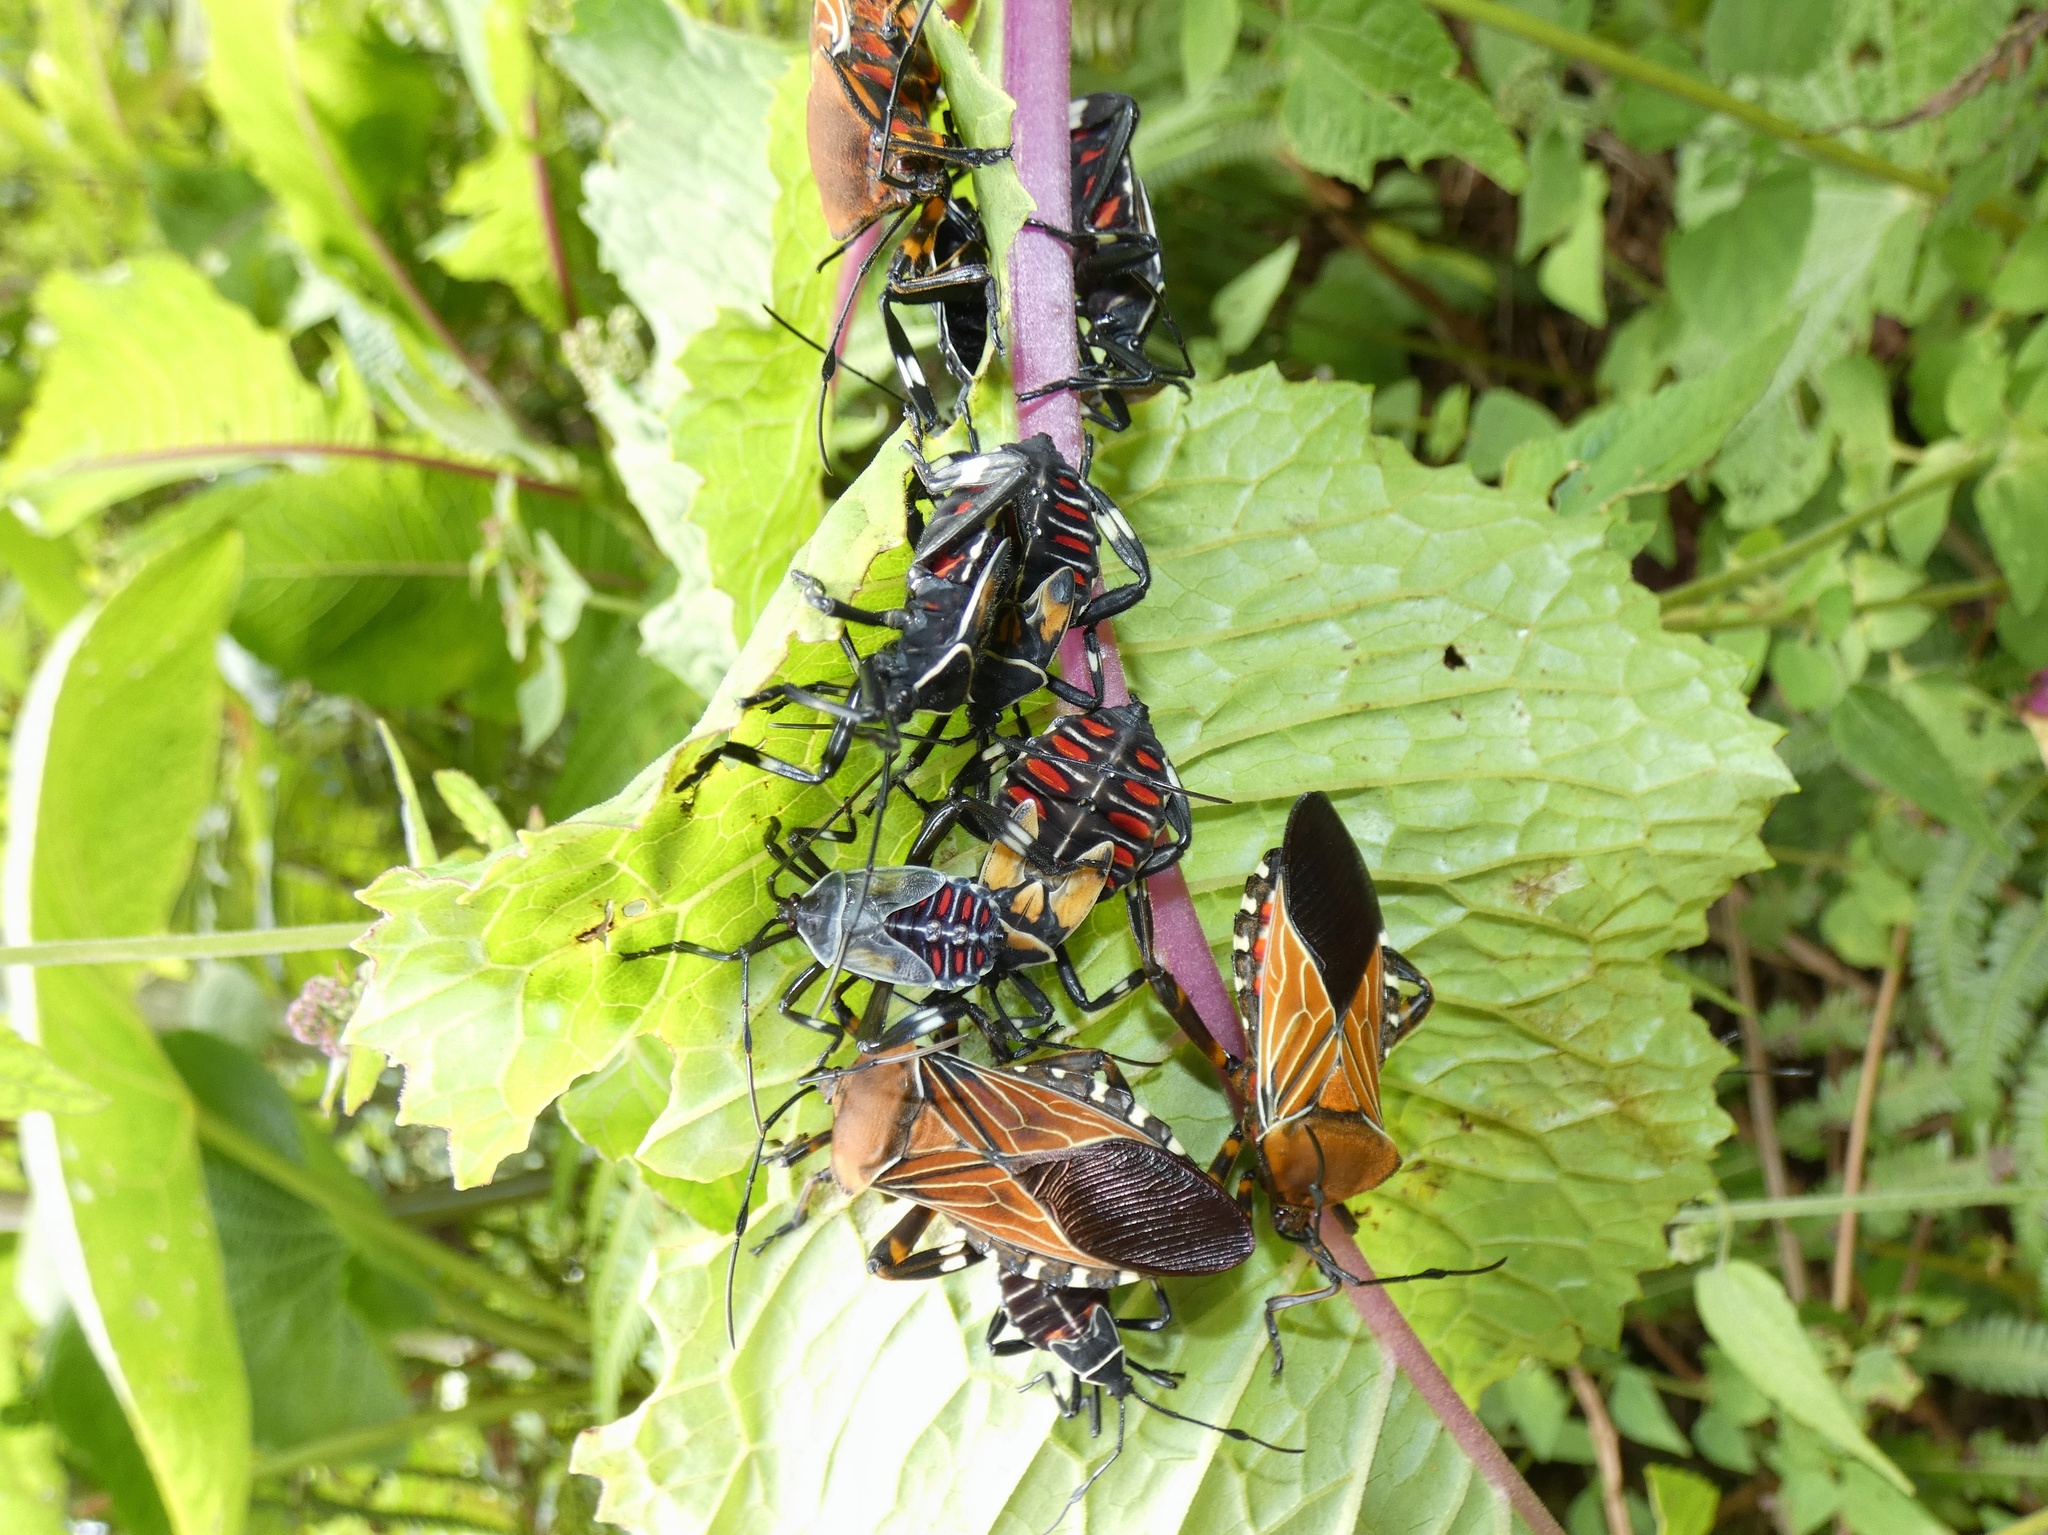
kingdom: Animalia
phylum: Arthropoda
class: Insecta
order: Hemiptera
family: Coreidae
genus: Thasus
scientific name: Thasus luteolus
